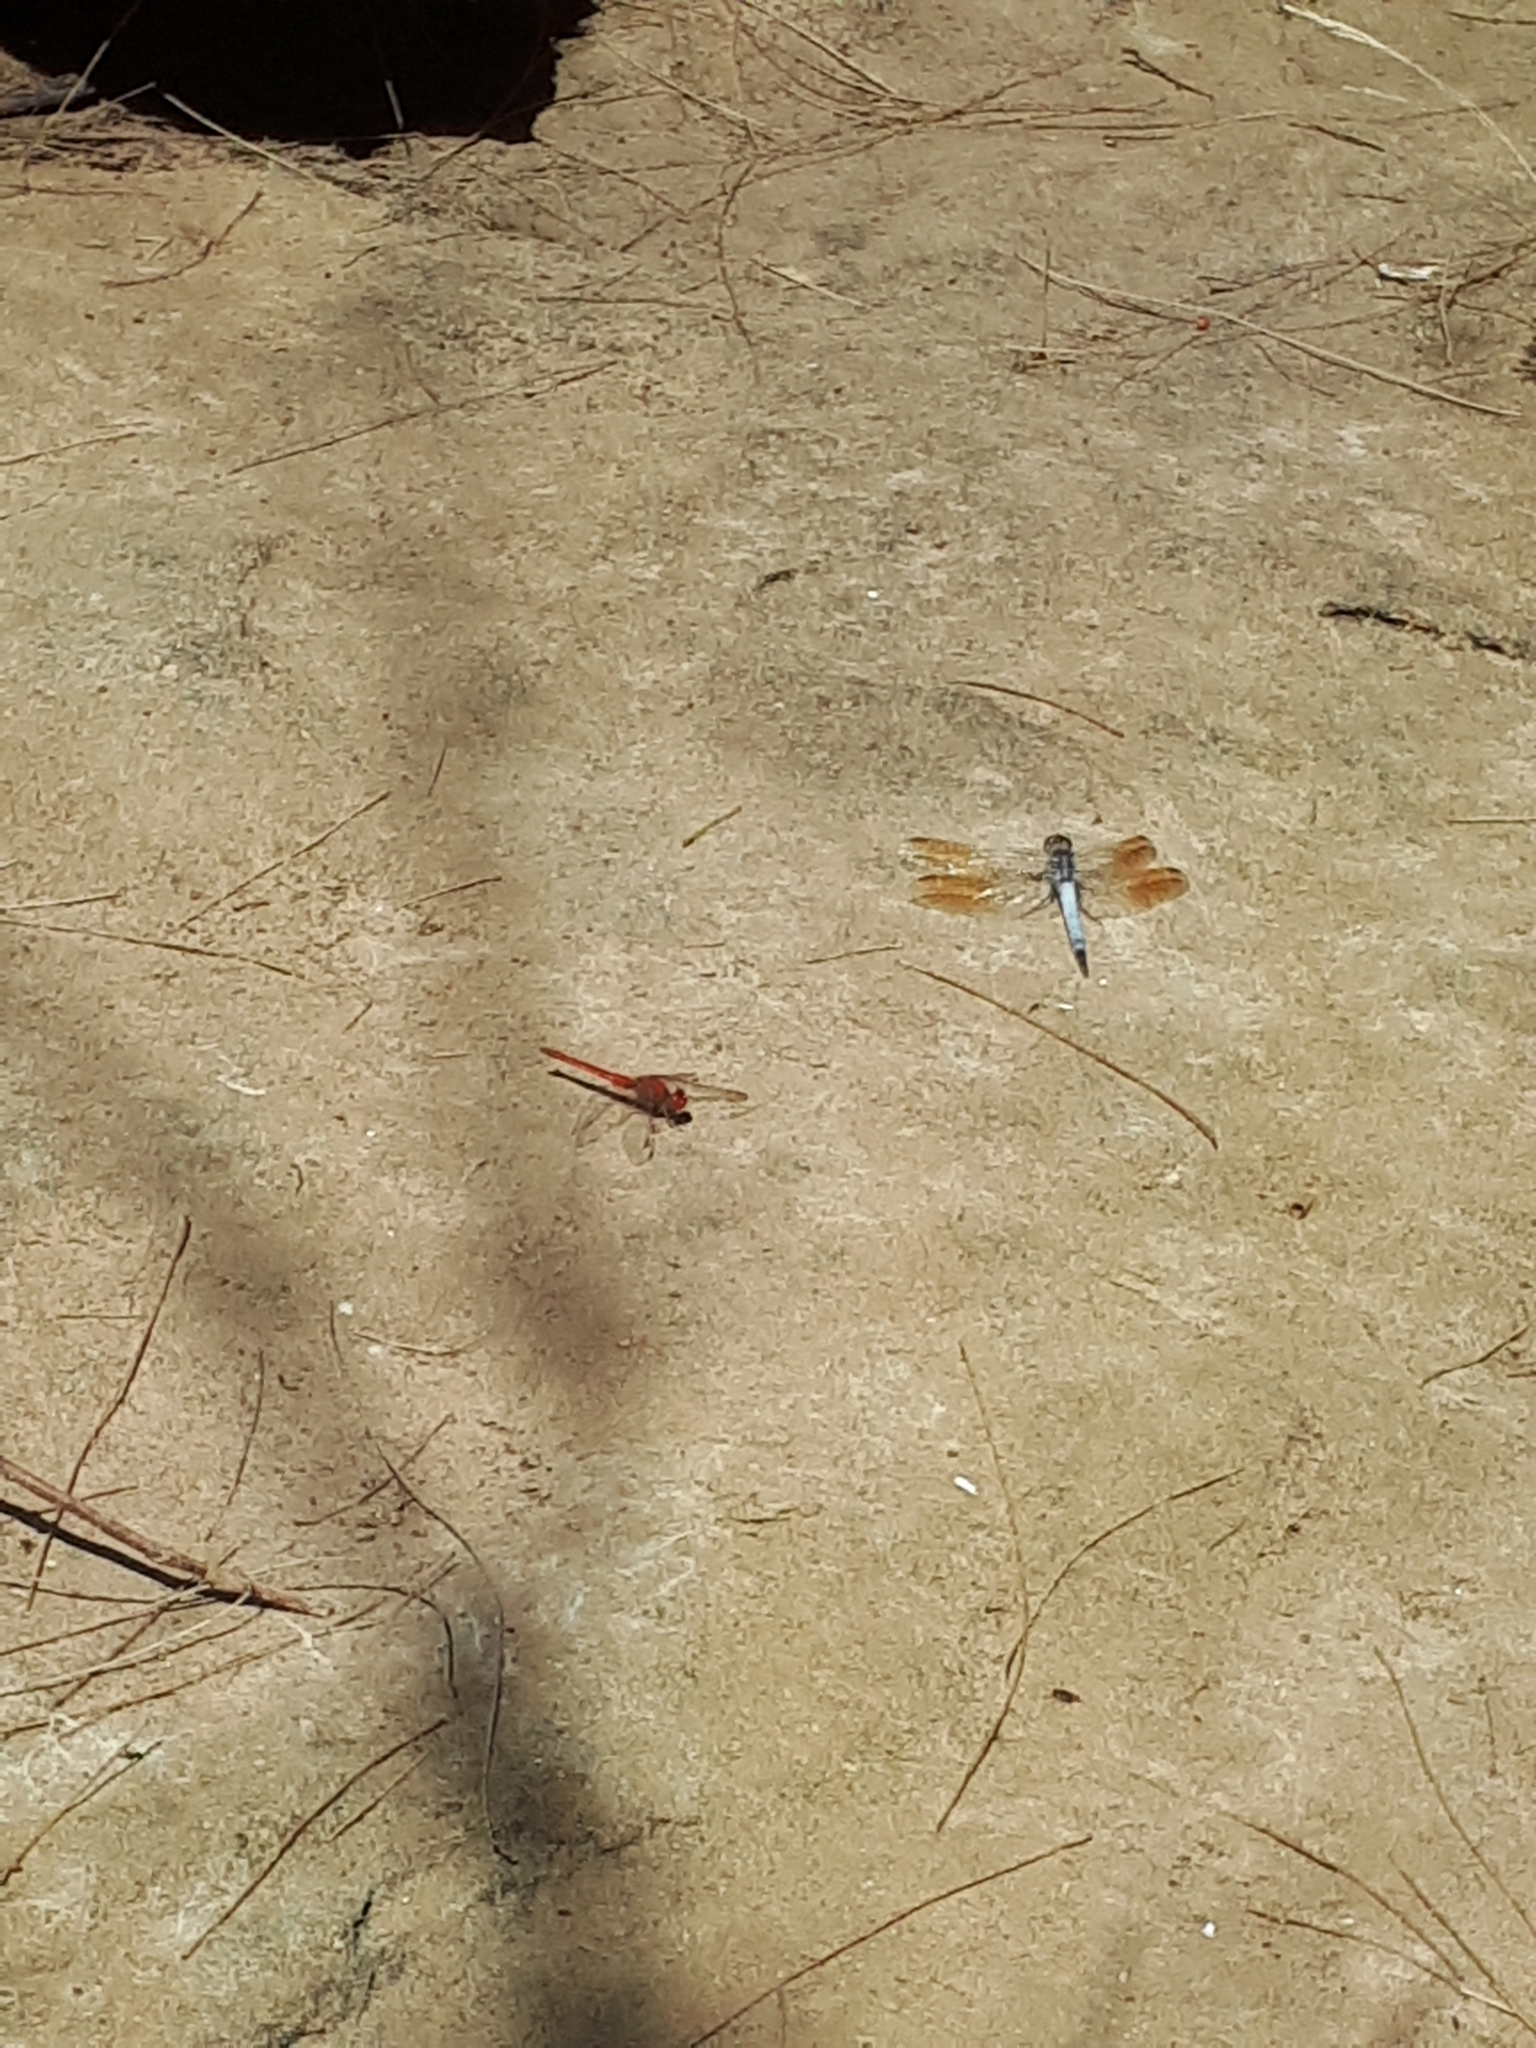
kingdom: Animalia
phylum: Arthropoda
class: Insecta
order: Odonata
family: Libellulidae
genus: Orthetrum
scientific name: Orthetrum caledonicum
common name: Blue skimmer
